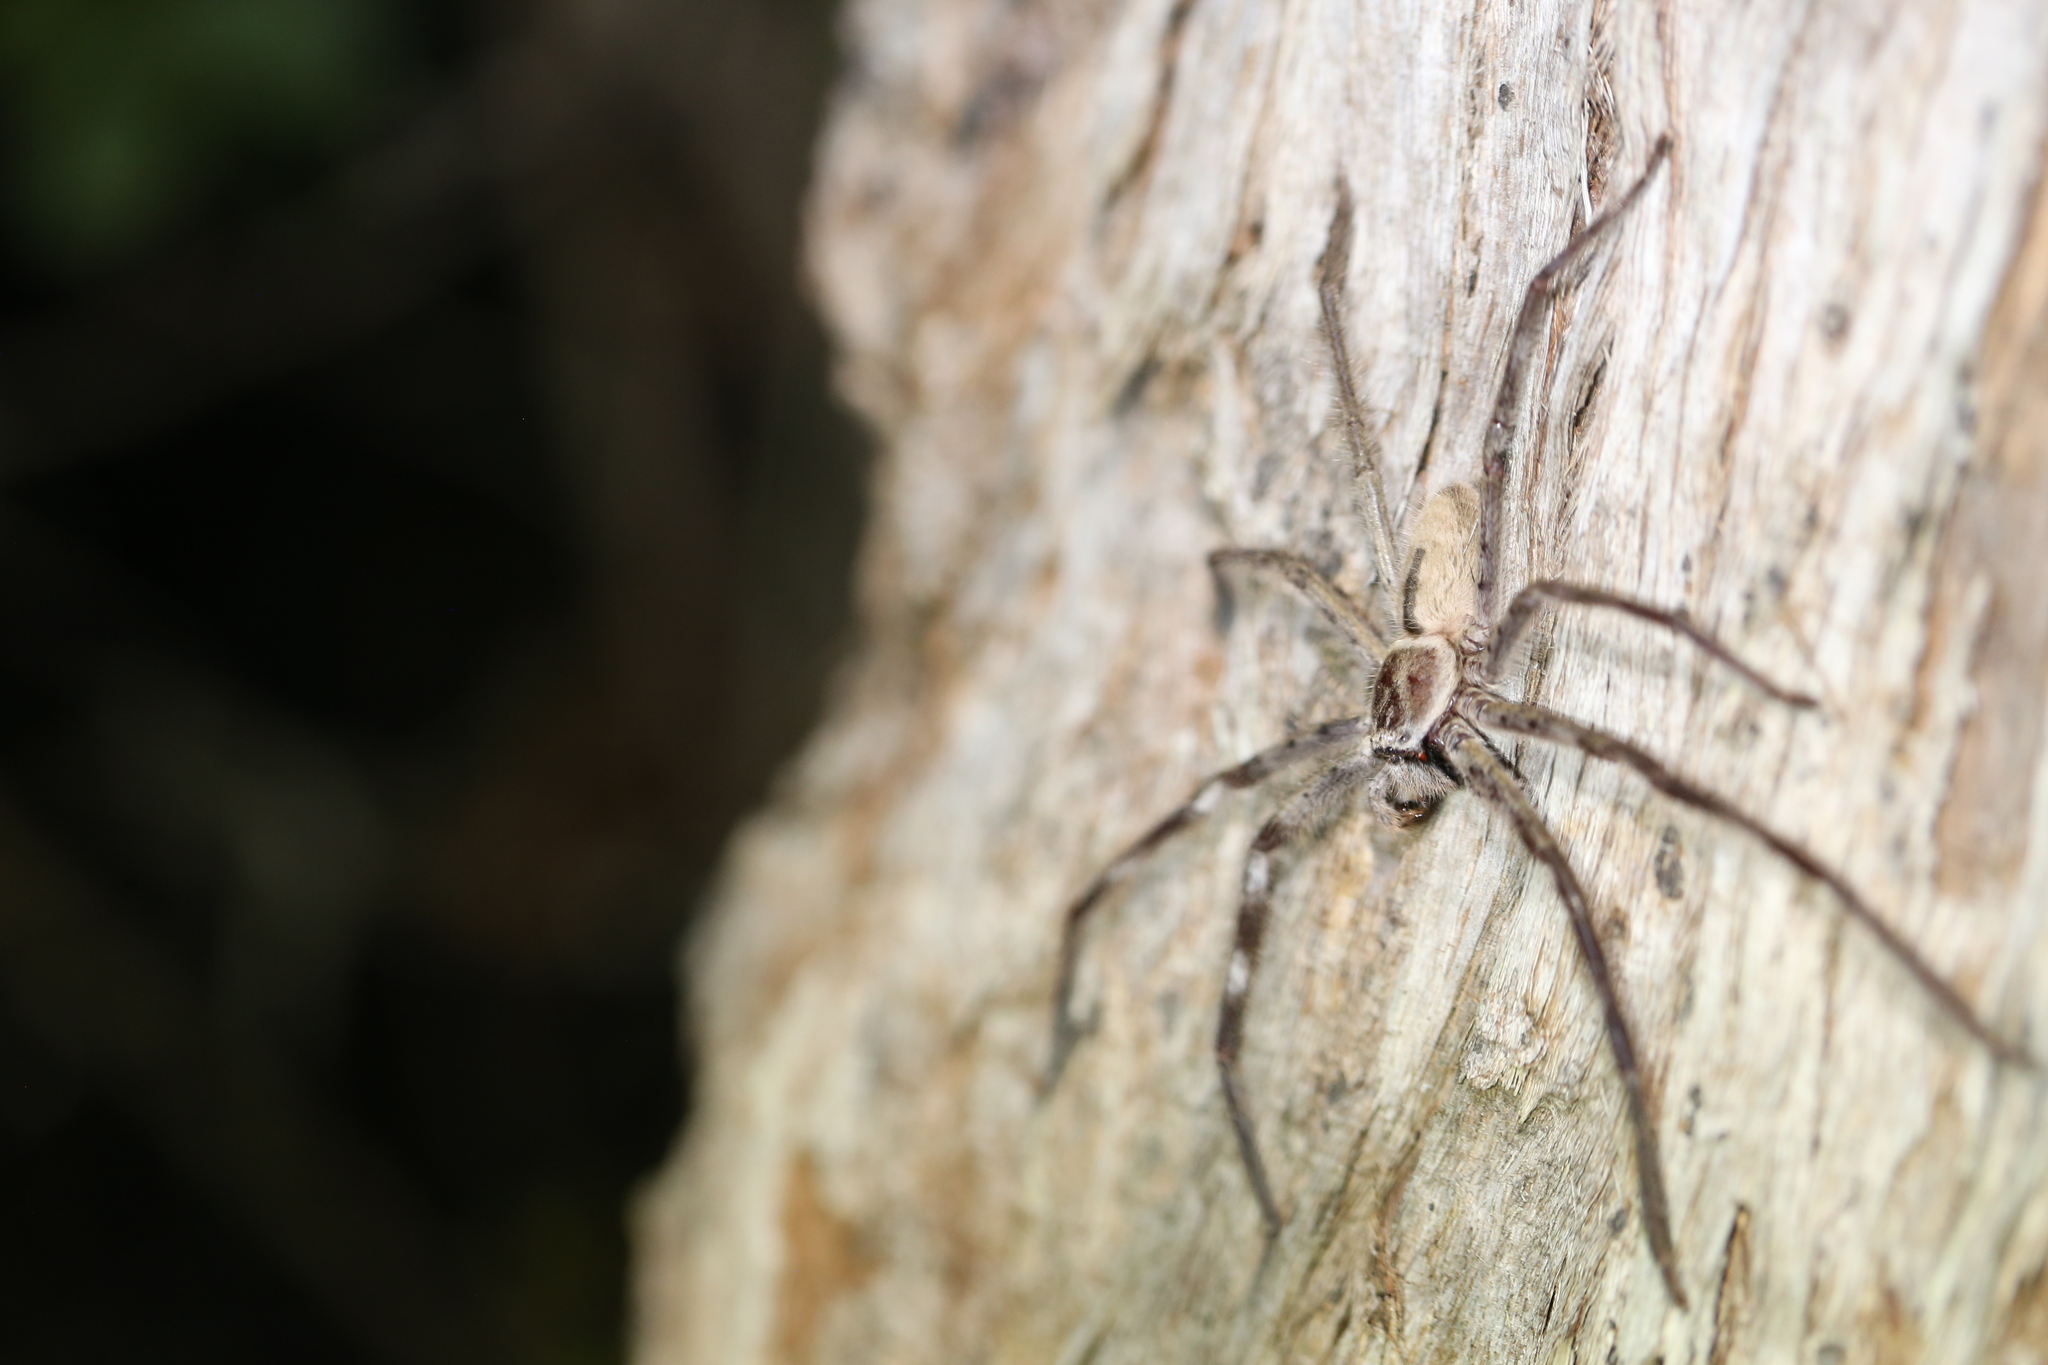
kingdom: Animalia
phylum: Arthropoda
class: Arachnida
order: Araneae
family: Sparassidae
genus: Holconia
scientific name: Holconia immanis
